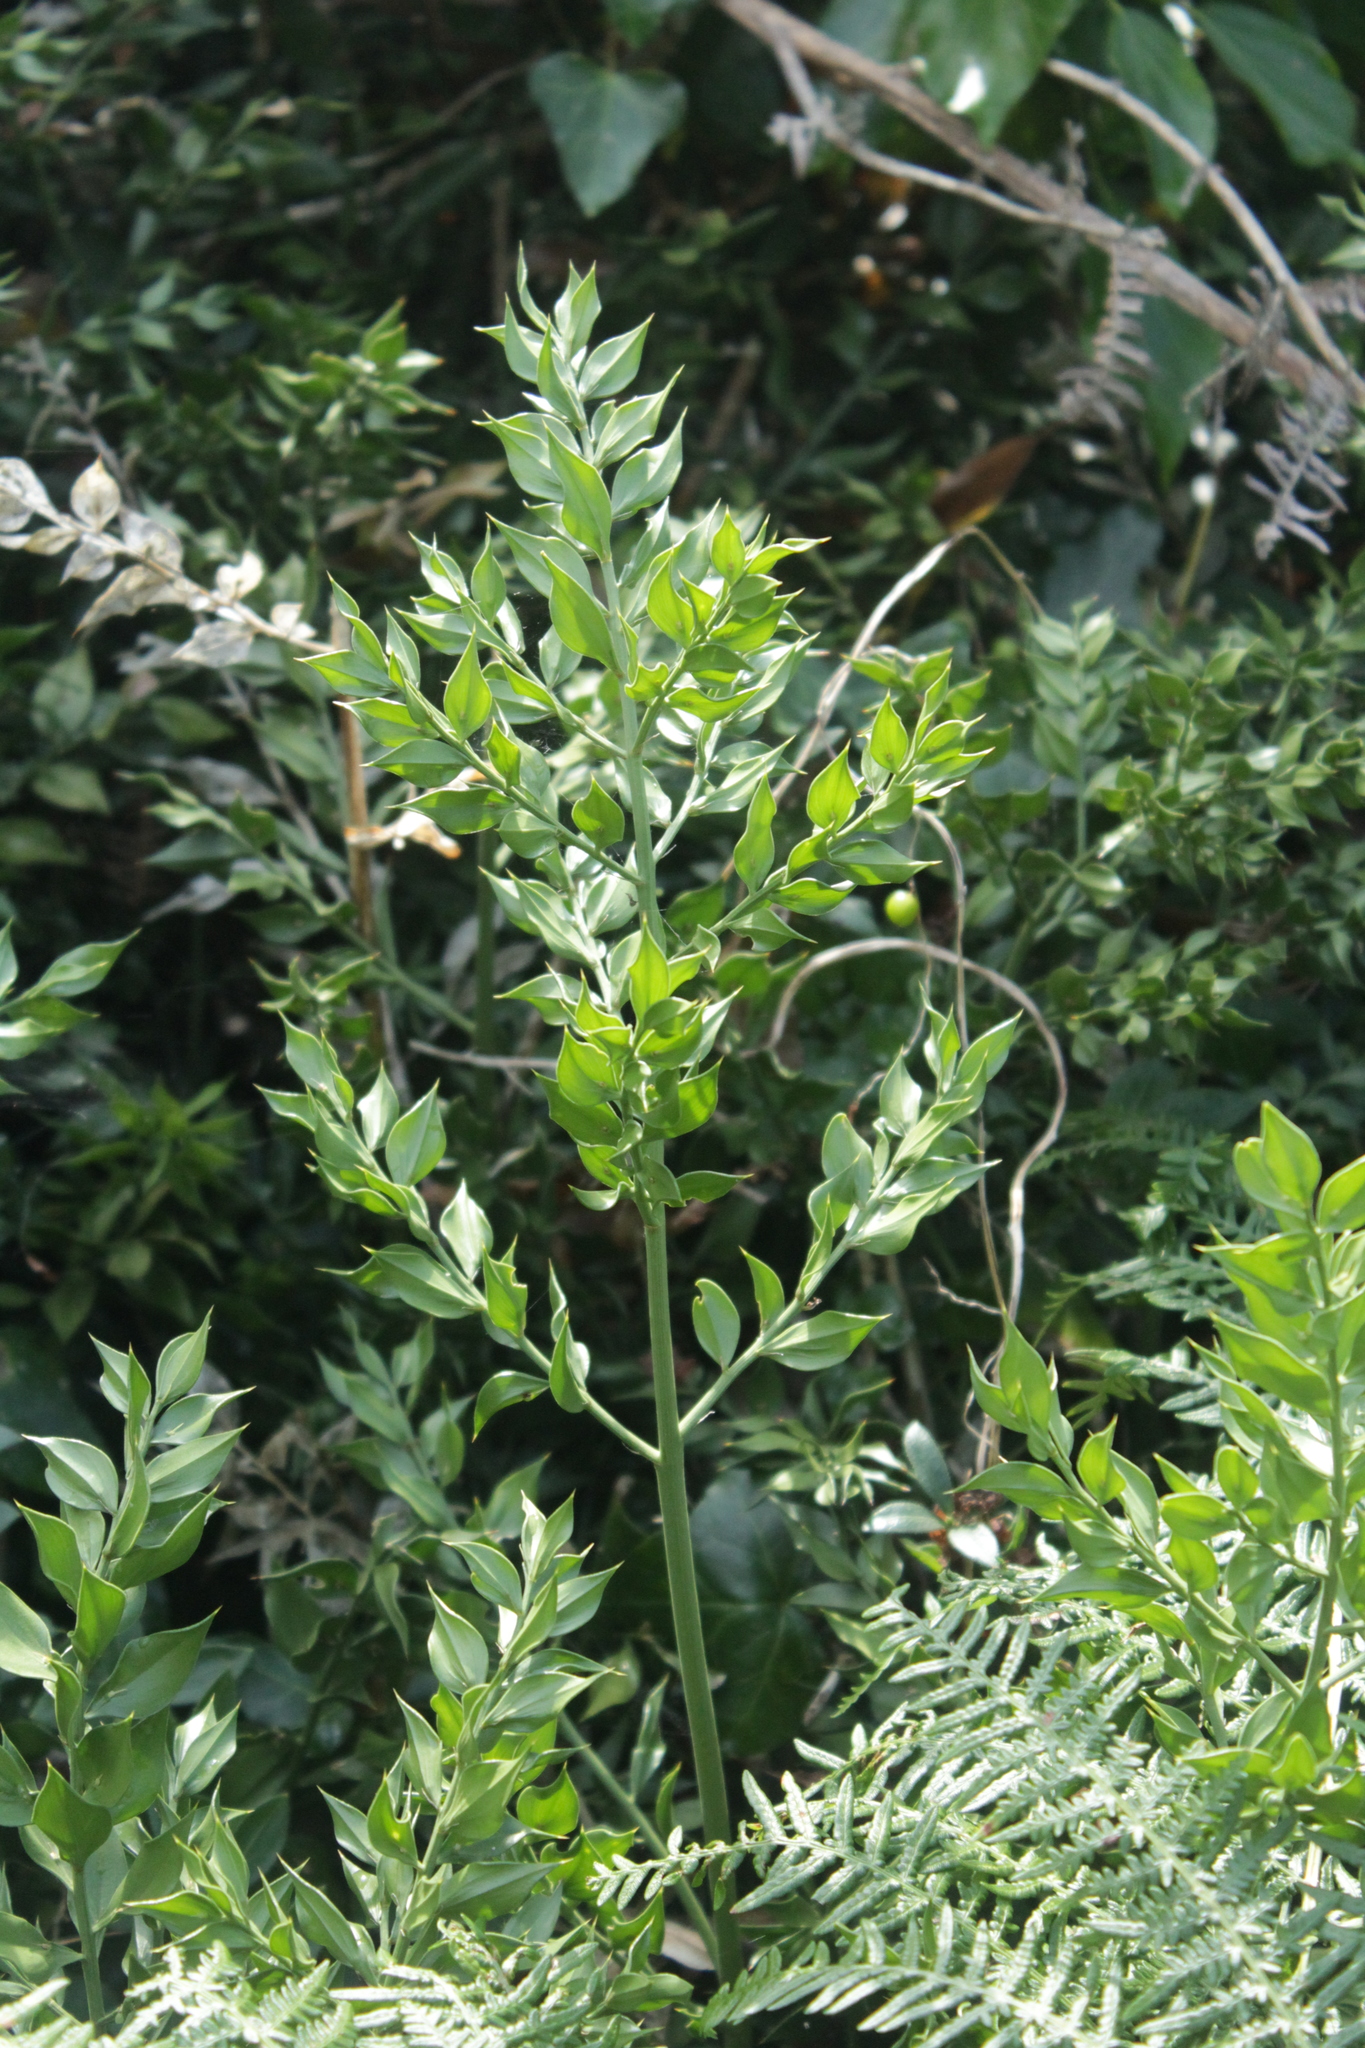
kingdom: Plantae
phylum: Tracheophyta
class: Liliopsida
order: Asparagales
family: Asparagaceae
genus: Ruscus
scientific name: Ruscus aculeatus
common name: Butcher's-broom
